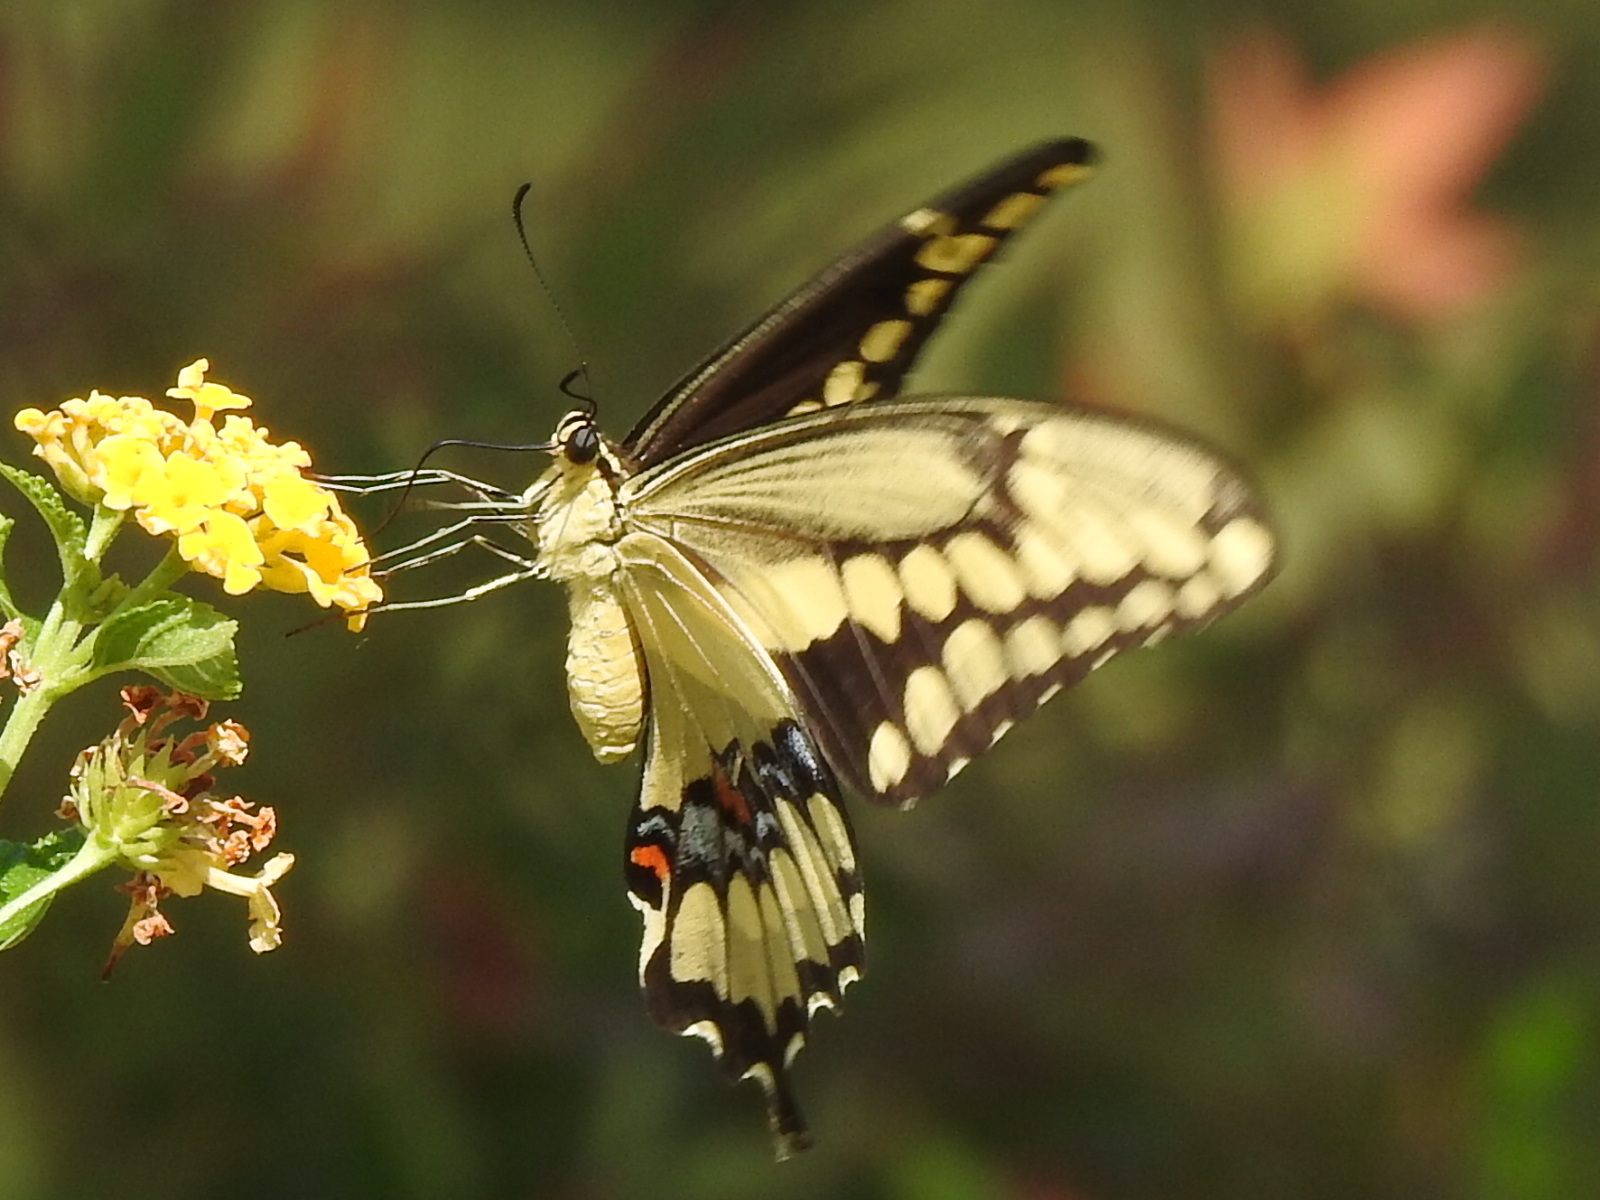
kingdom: Animalia
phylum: Arthropoda
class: Insecta
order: Lepidoptera
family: Papilionidae
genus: Papilio
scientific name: Papilio cresphontes
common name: Giant swallowtail
